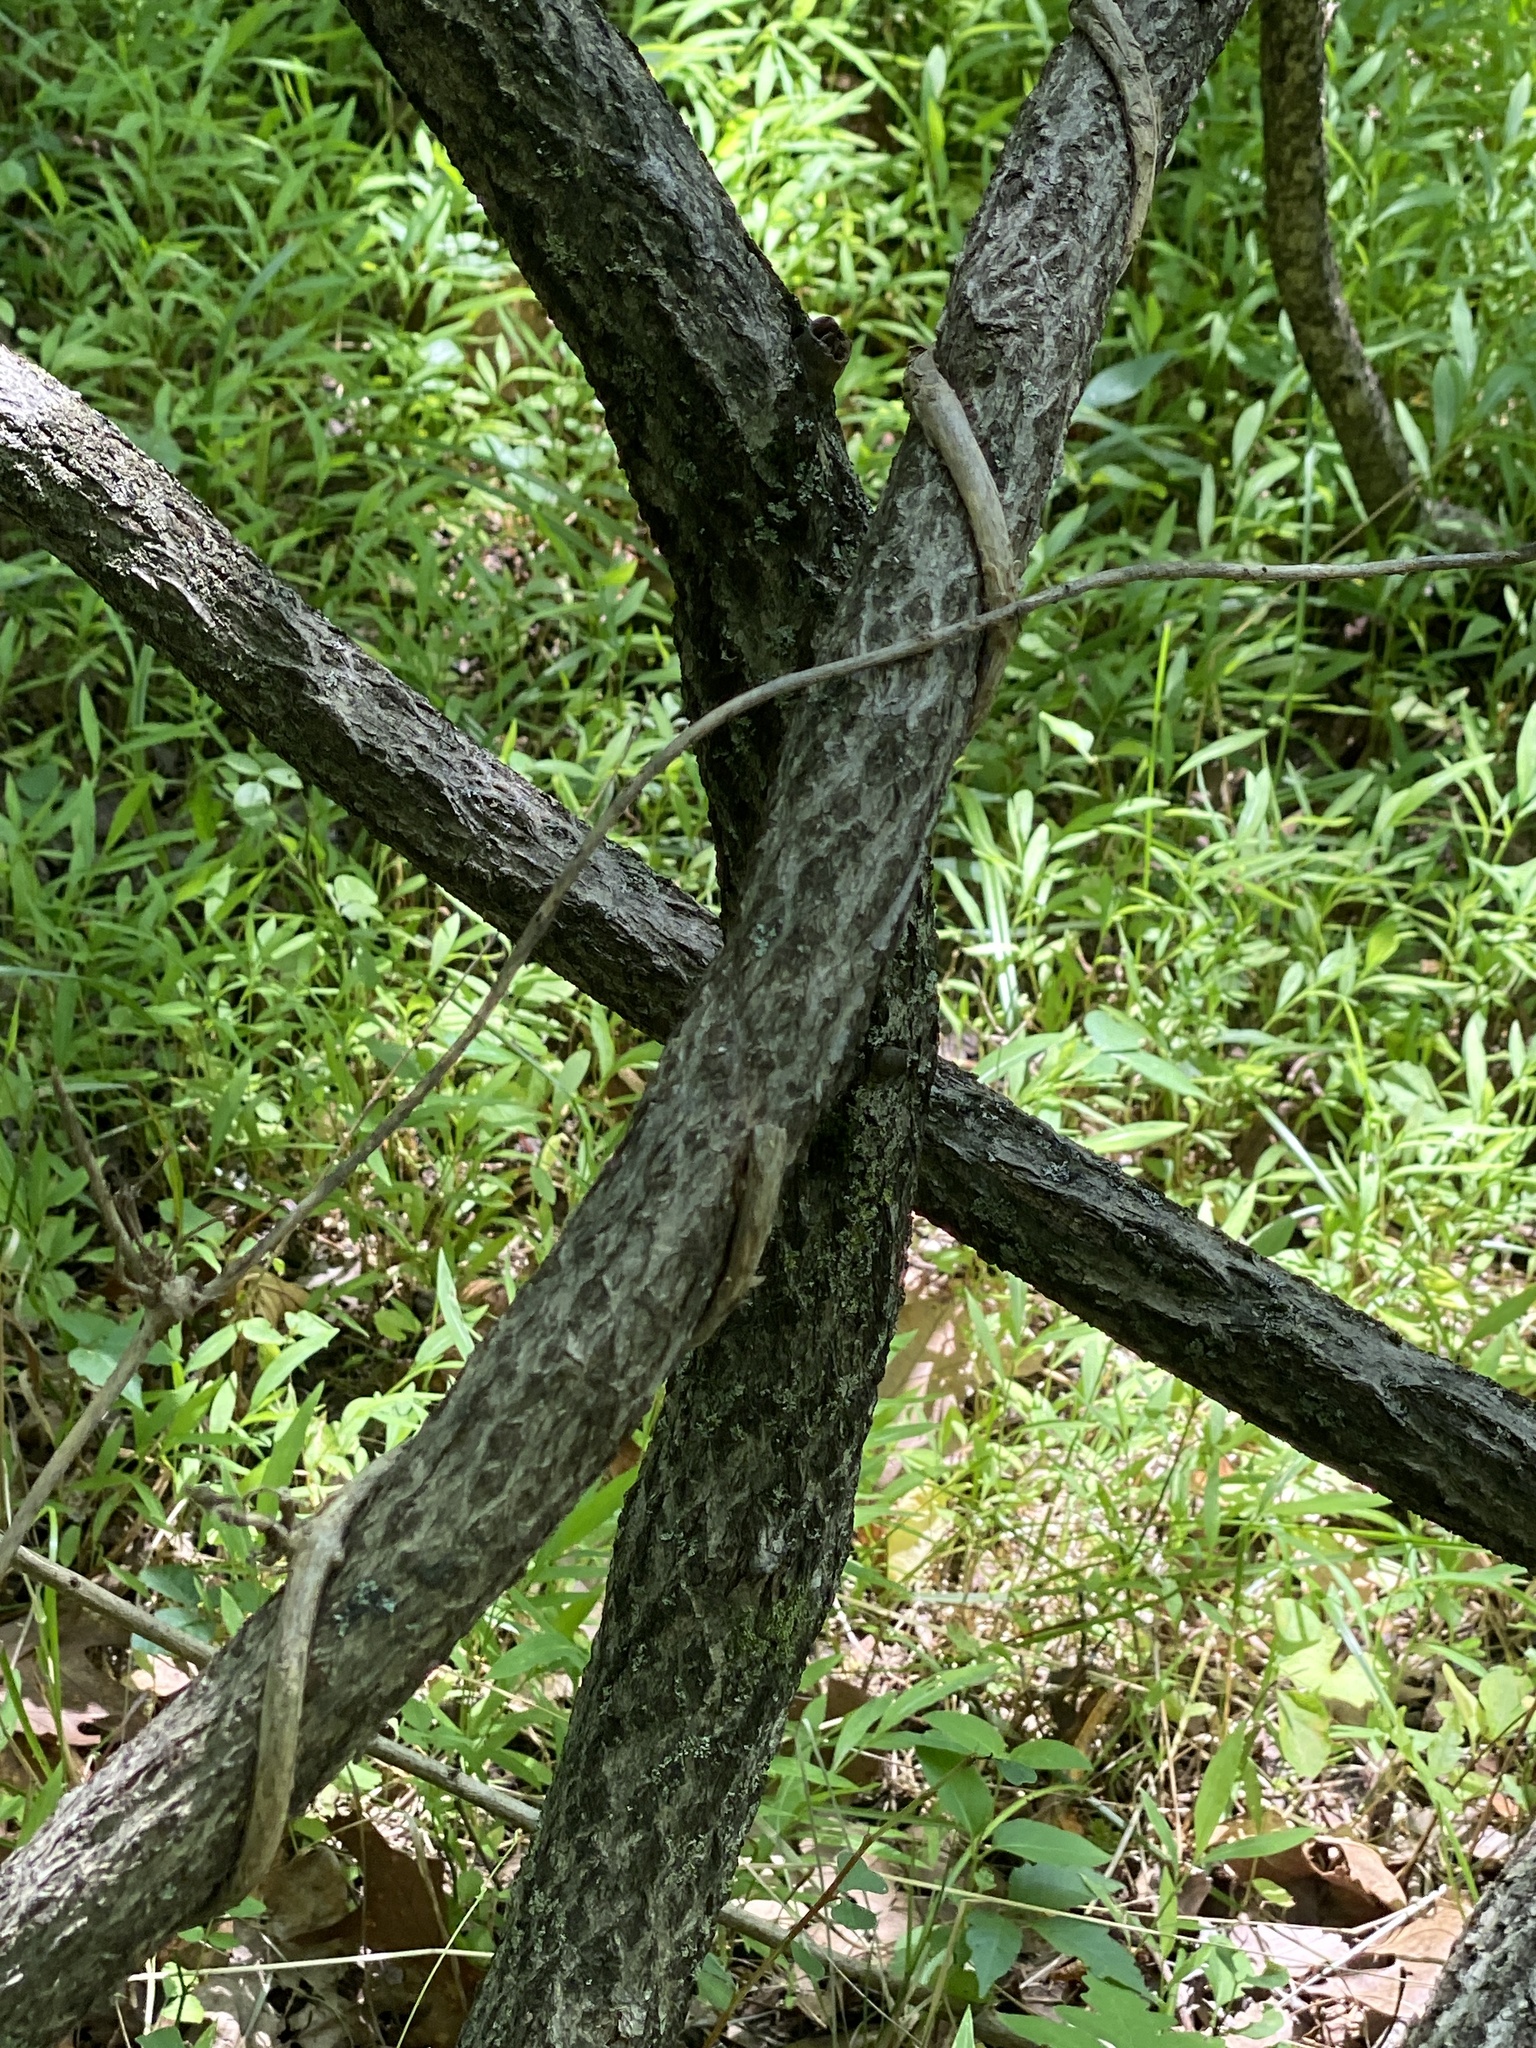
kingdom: Plantae
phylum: Tracheophyta
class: Magnoliopsida
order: Celastrales
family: Celastraceae
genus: Celastrus
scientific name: Celastrus orbiculatus
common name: Oriental bittersweet
